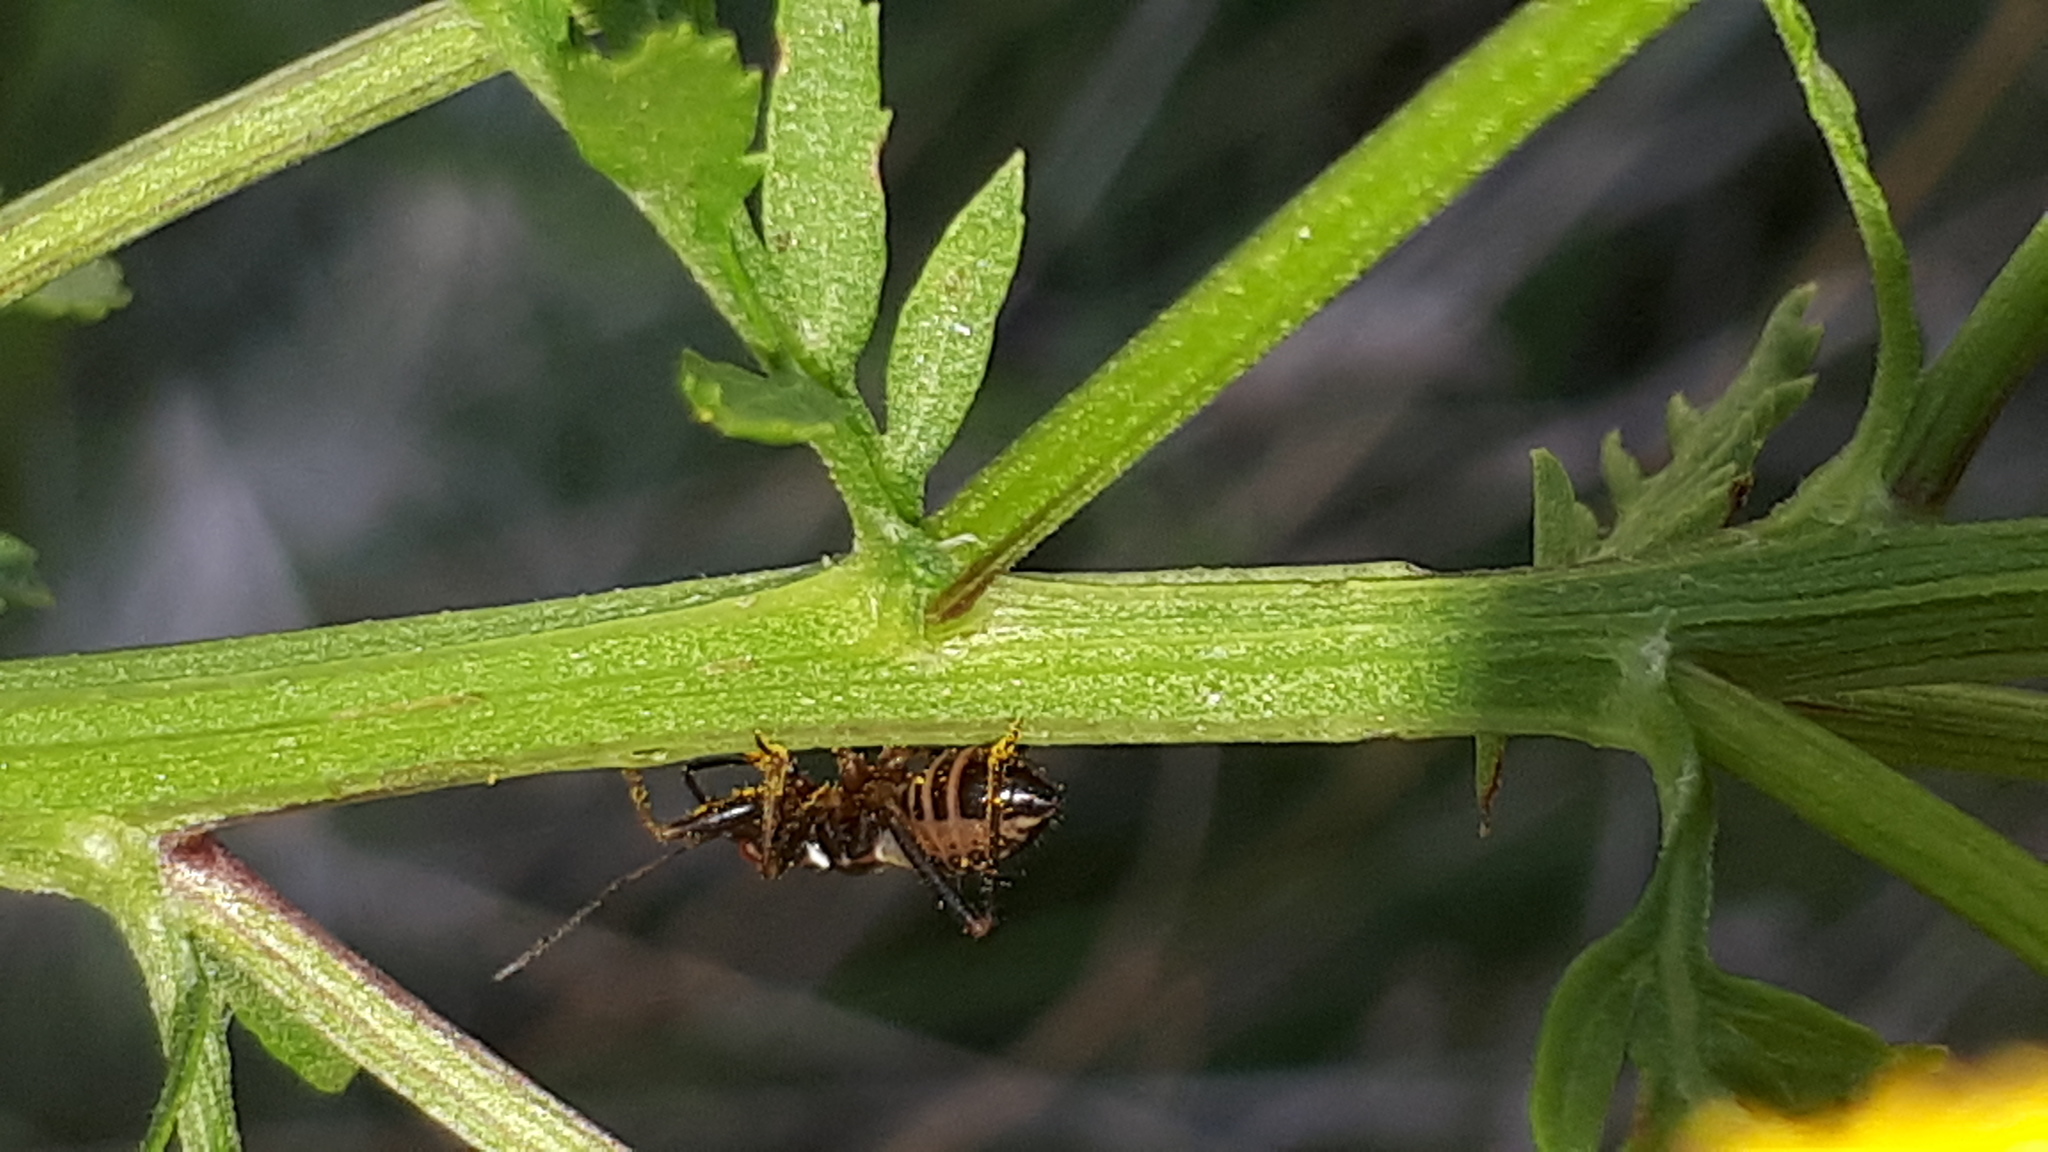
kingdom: Animalia
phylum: Arthropoda
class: Insecta
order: Hemiptera
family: Nabidae
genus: Himacerus
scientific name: Himacerus mirmicoides
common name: Ant damsel bug
